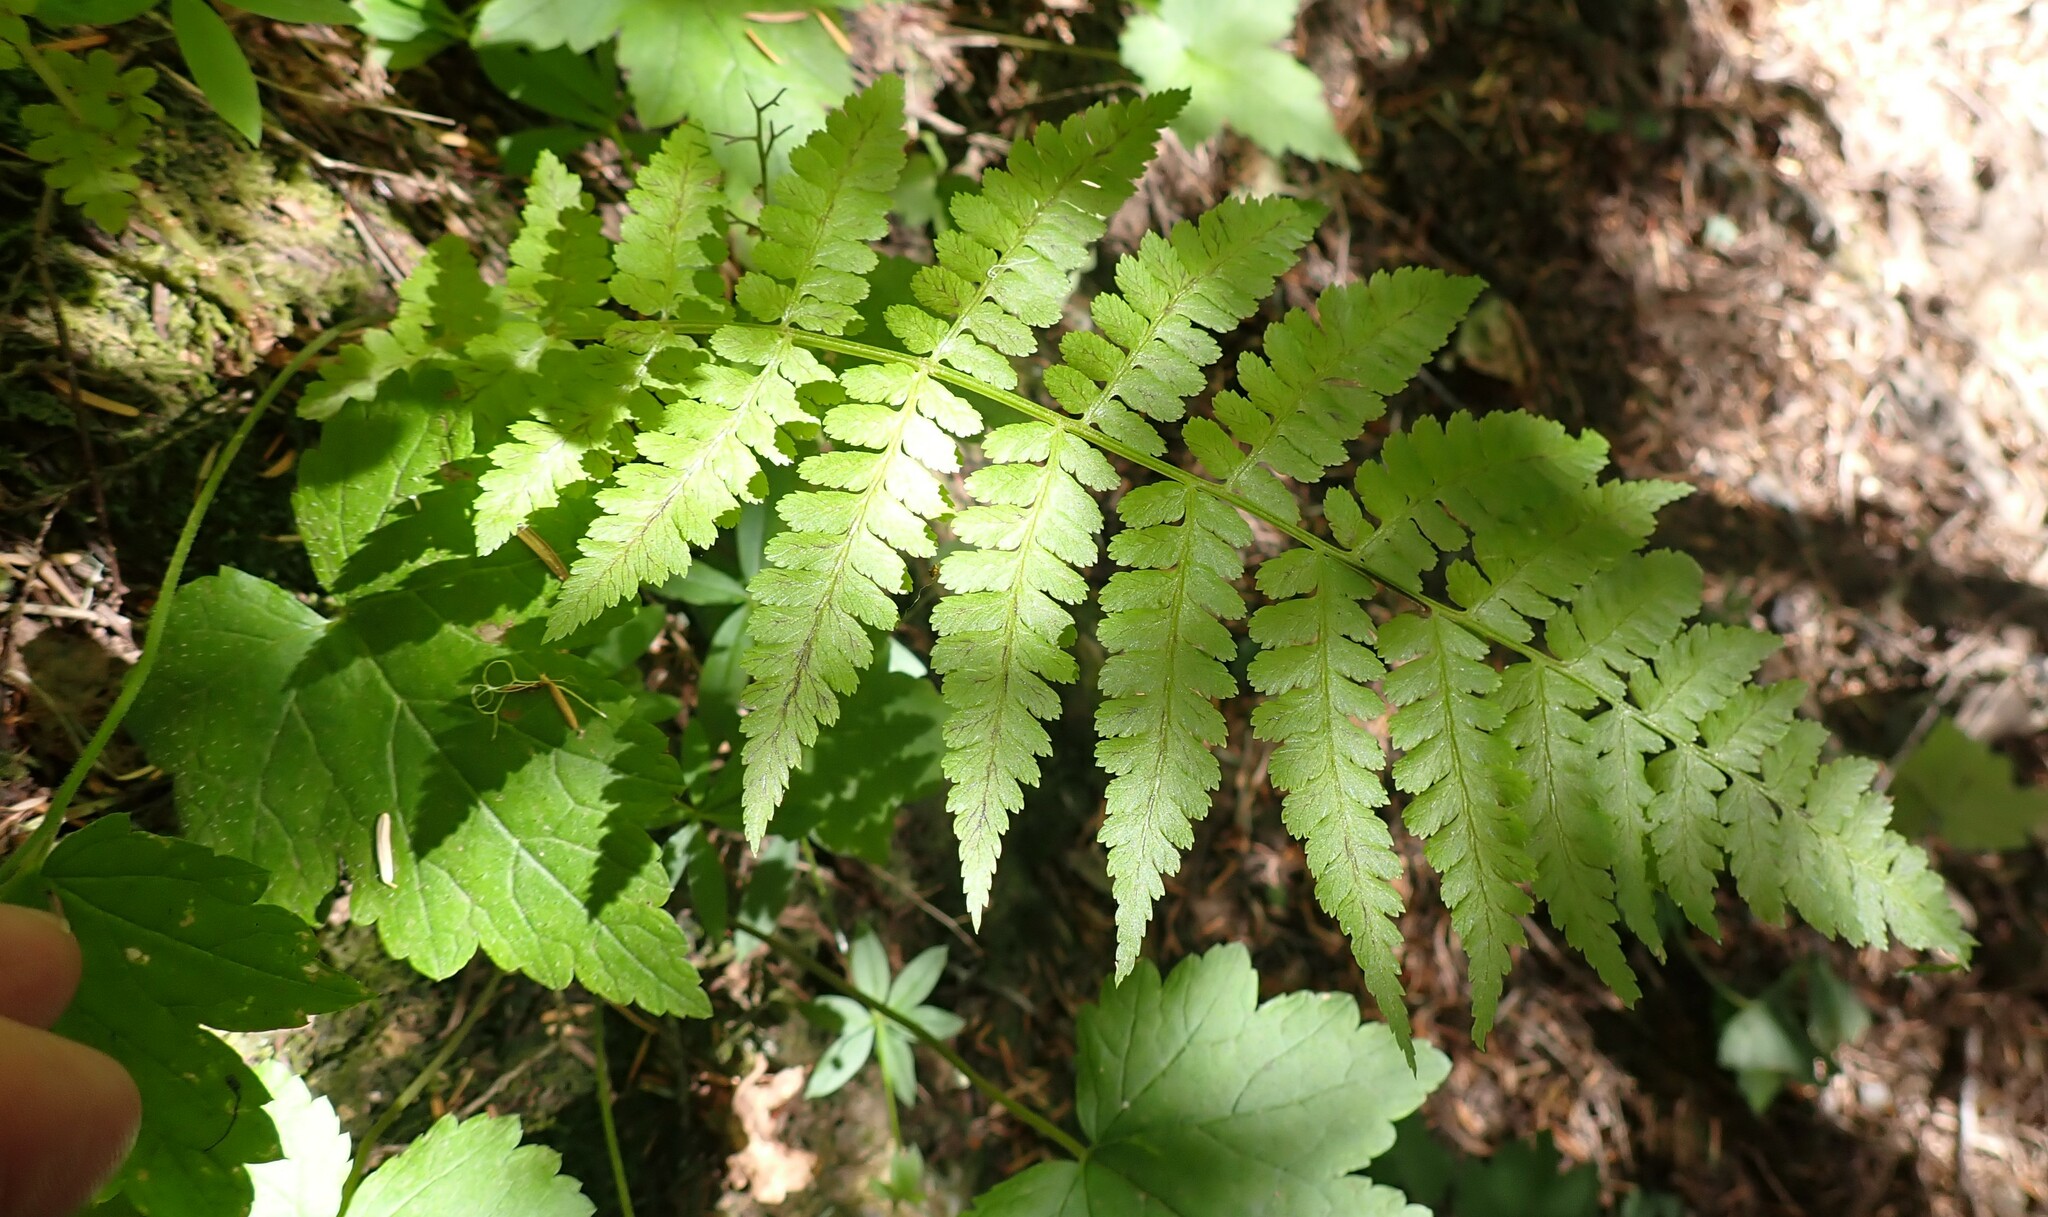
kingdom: Plantae
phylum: Tracheophyta
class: Polypodiopsida
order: Polypodiales
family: Athyriaceae
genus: Athyrium
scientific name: Athyrium filix-femina
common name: Lady fern
